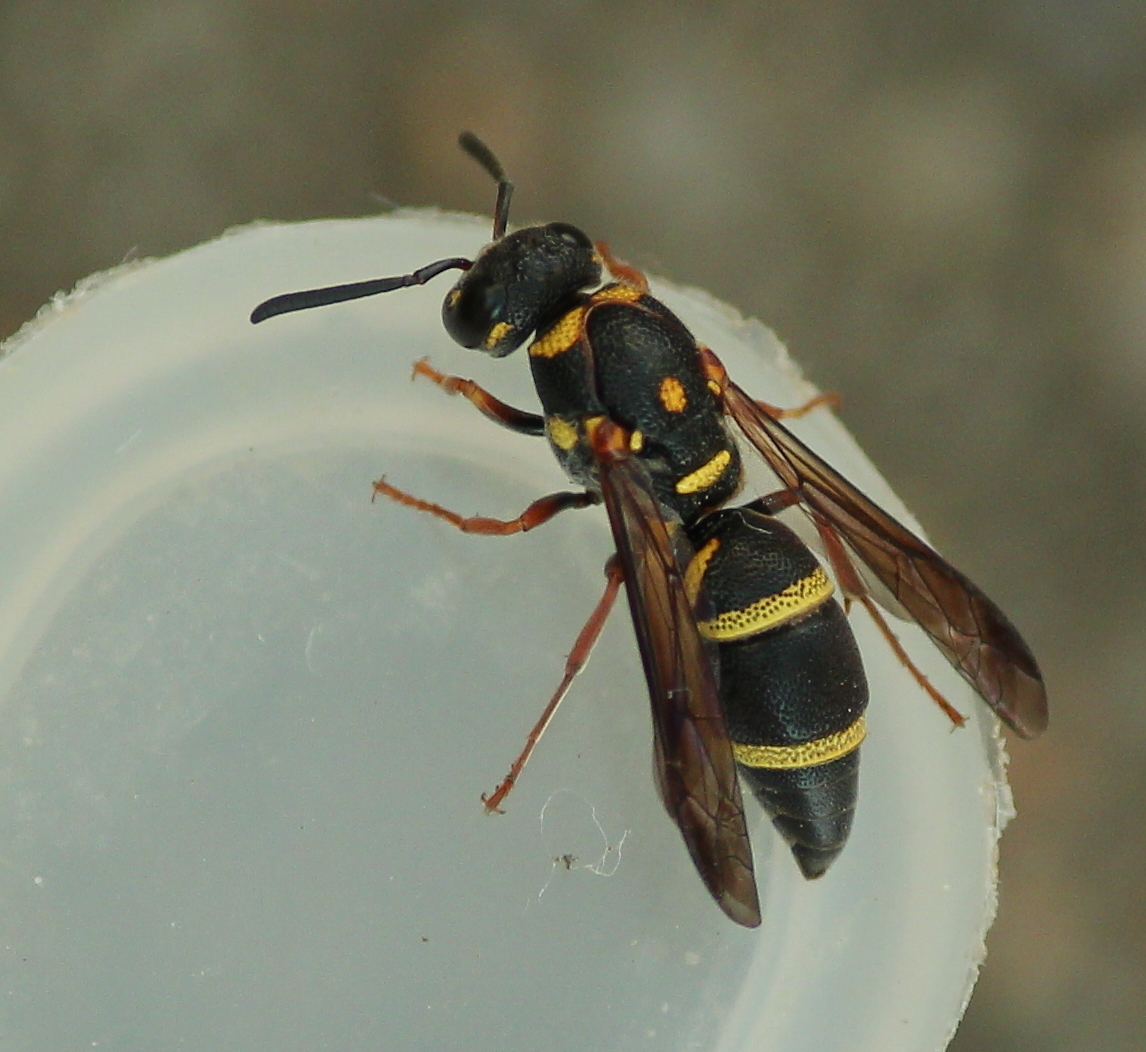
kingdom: Animalia
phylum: Arthropoda
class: Insecta
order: Hymenoptera
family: Eumenidae
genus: Parancistrocerus
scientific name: Parancistrocerus fulvipes
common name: Potter wasp
